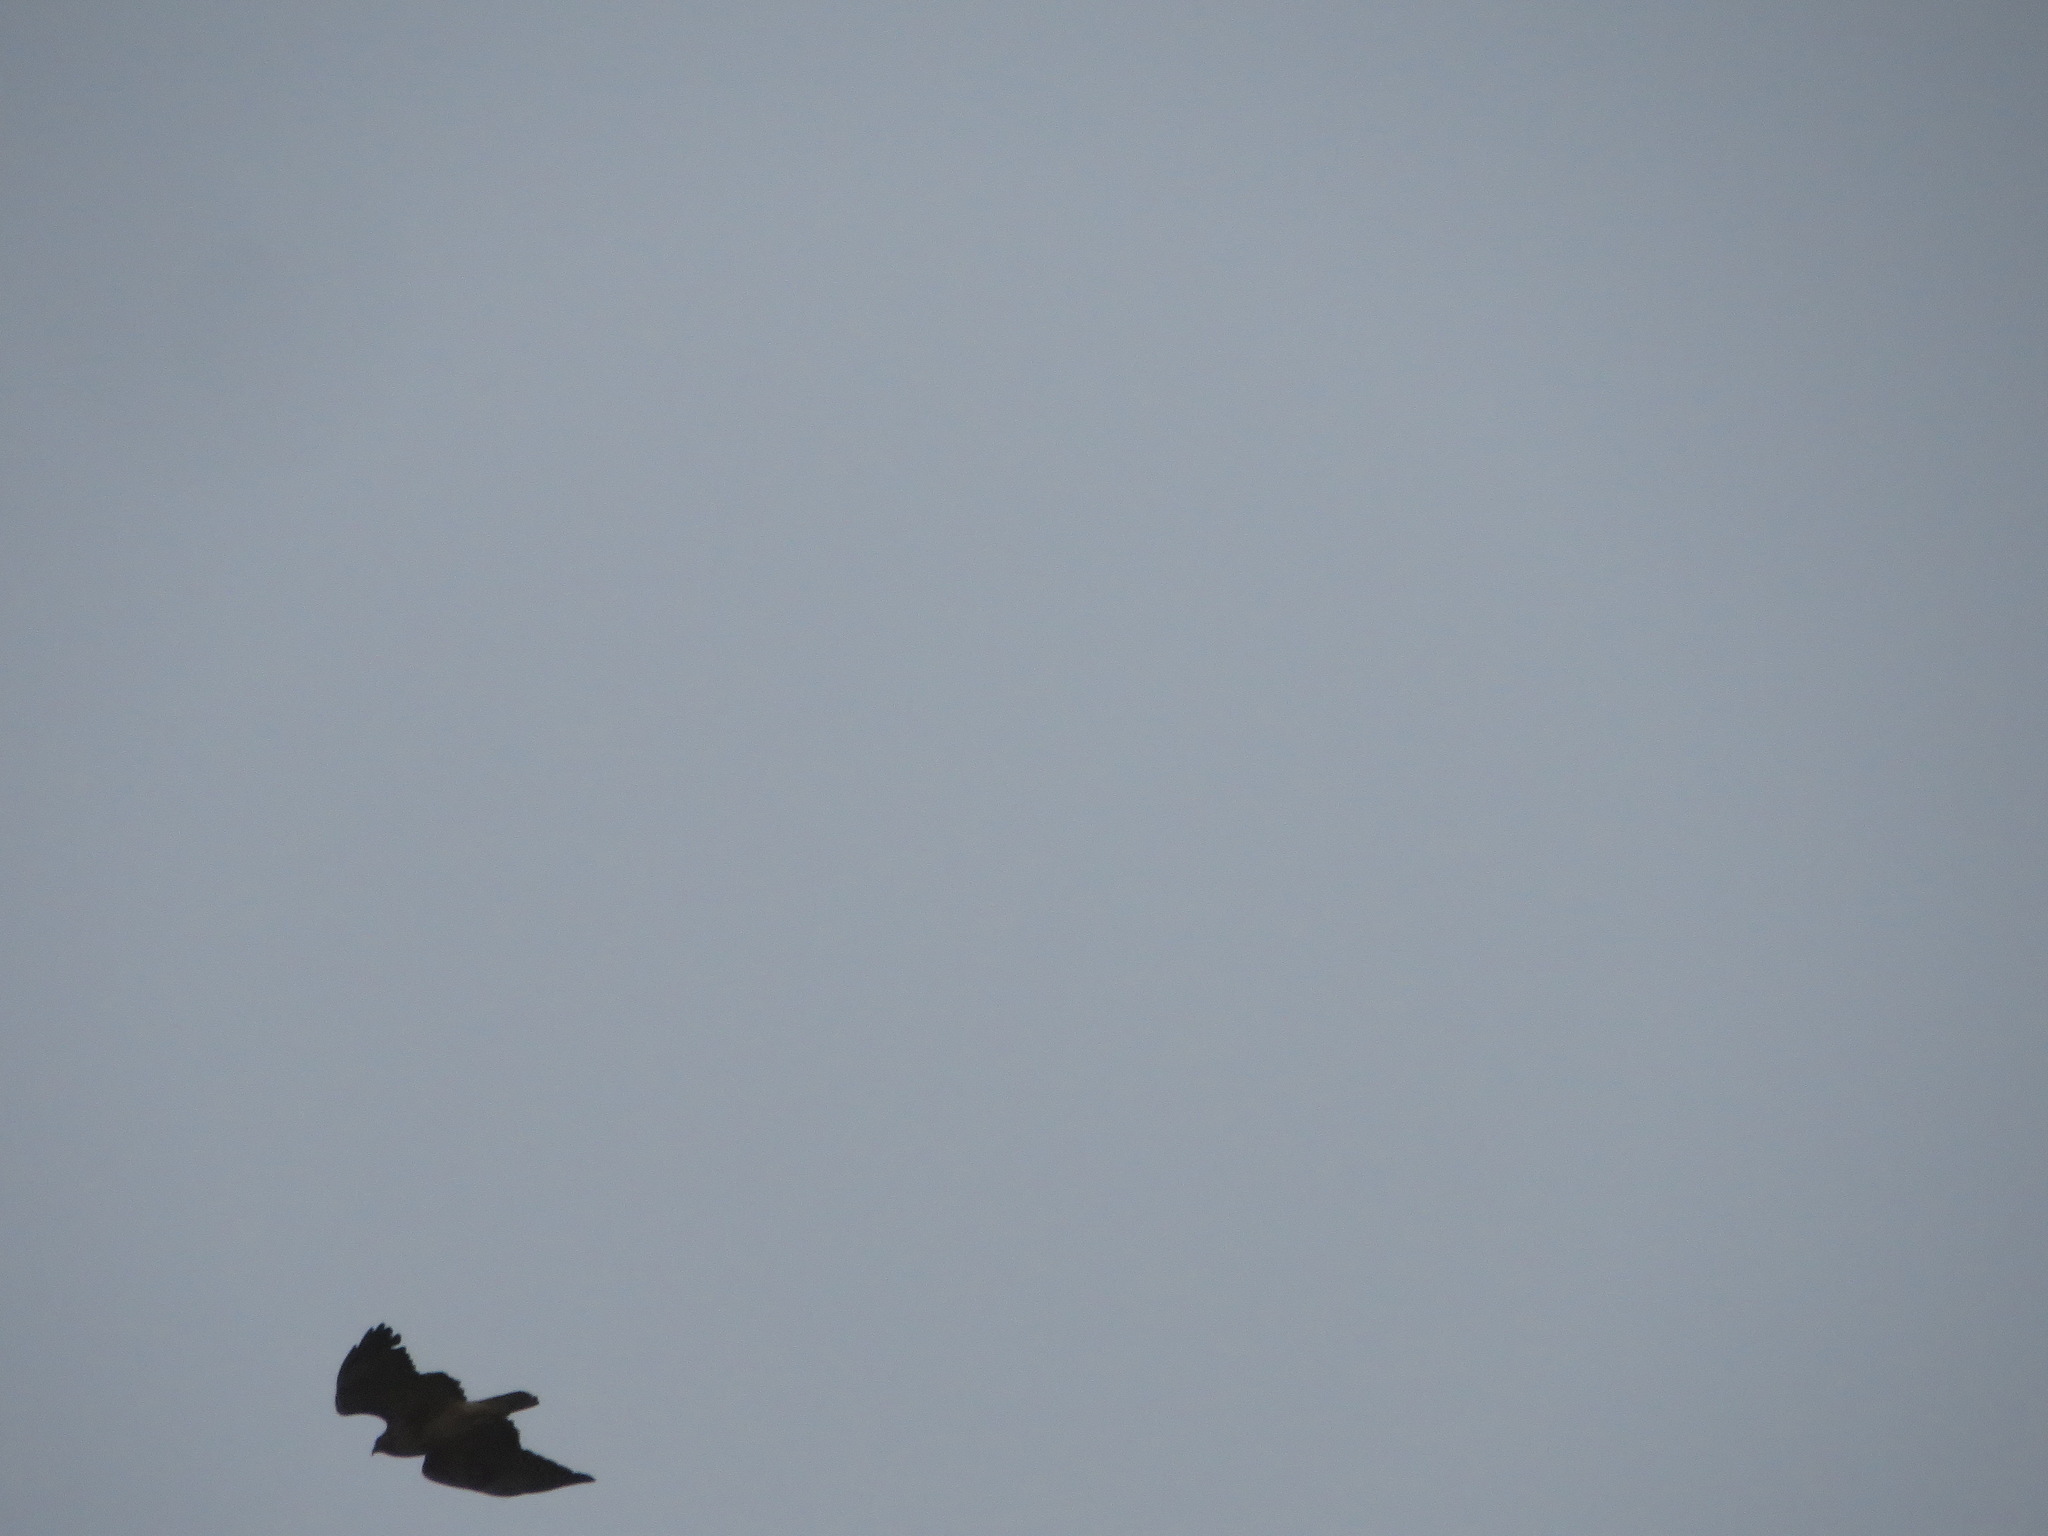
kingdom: Animalia
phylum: Chordata
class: Aves
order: Accipitriformes
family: Accipitridae
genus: Buteo
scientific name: Buteo jamaicensis
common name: Red-tailed hawk
